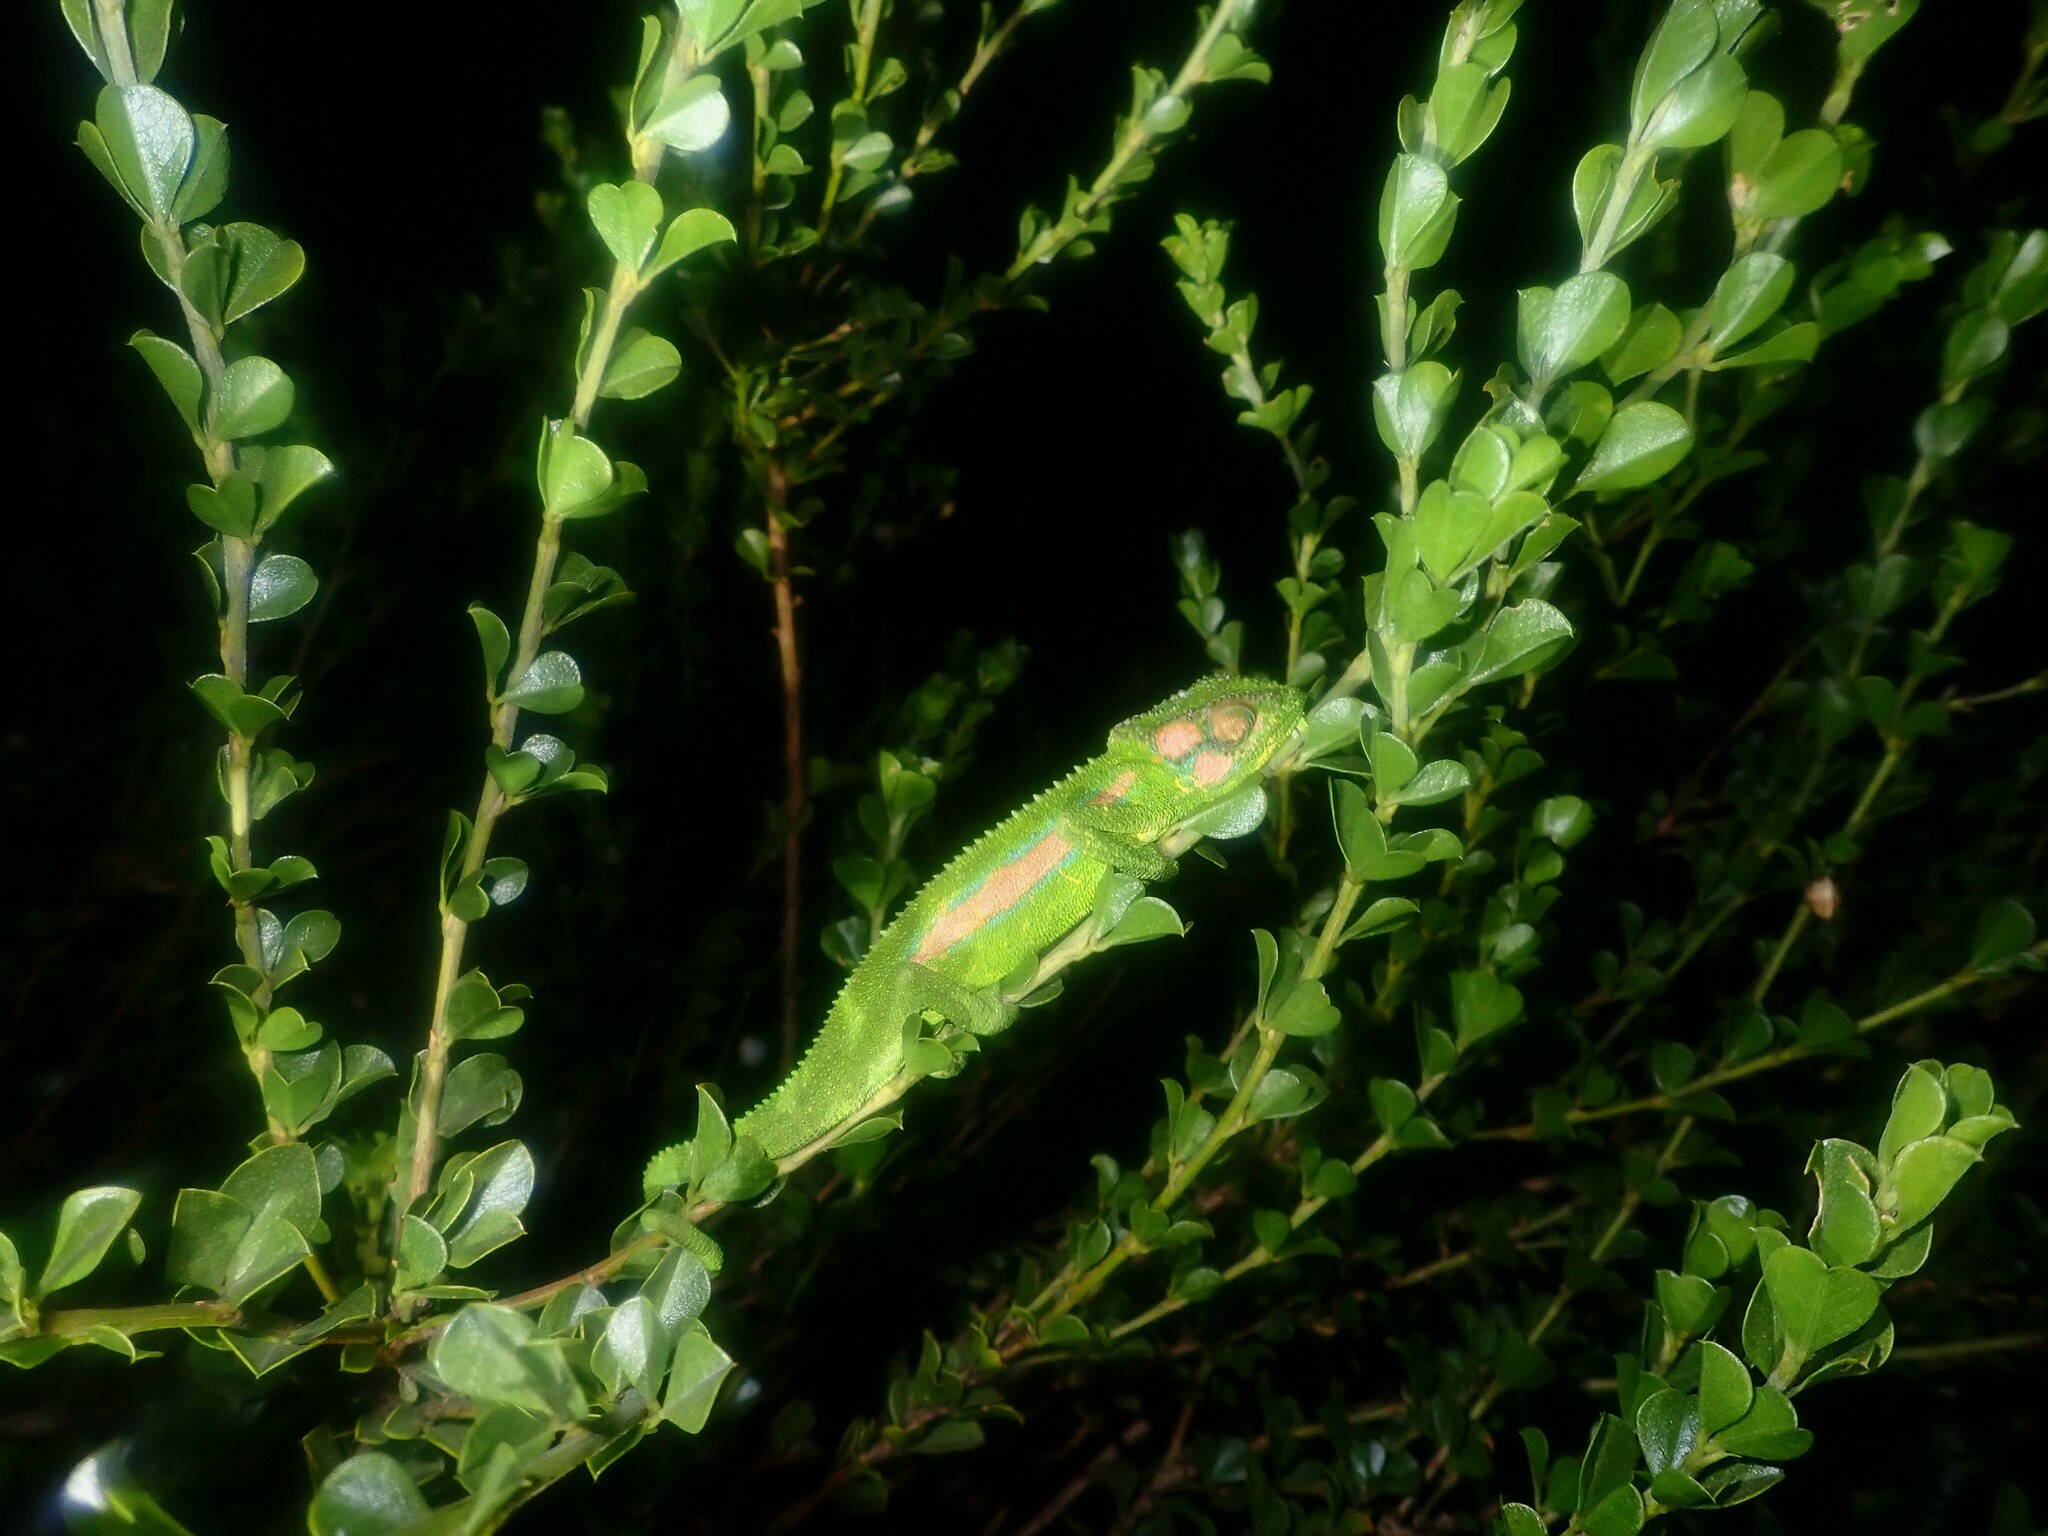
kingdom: Animalia
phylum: Chordata
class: Squamata
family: Chamaeleonidae
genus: Bradypodion
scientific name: Bradypodion pumilum
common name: Cape dwarf chameleon
